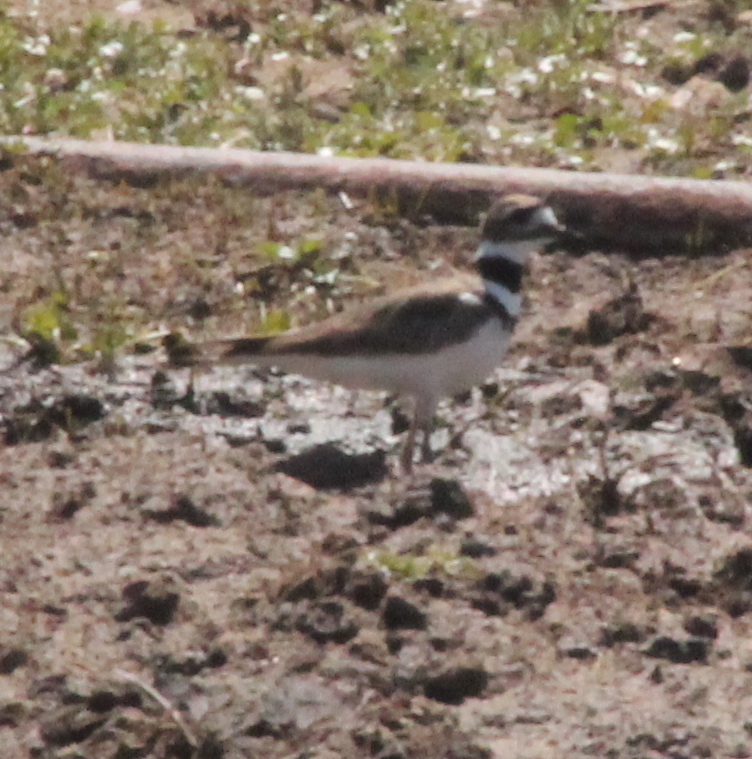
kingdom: Animalia
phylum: Chordata
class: Aves
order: Charadriiformes
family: Charadriidae
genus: Charadrius
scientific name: Charadrius vociferus
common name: Killdeer
